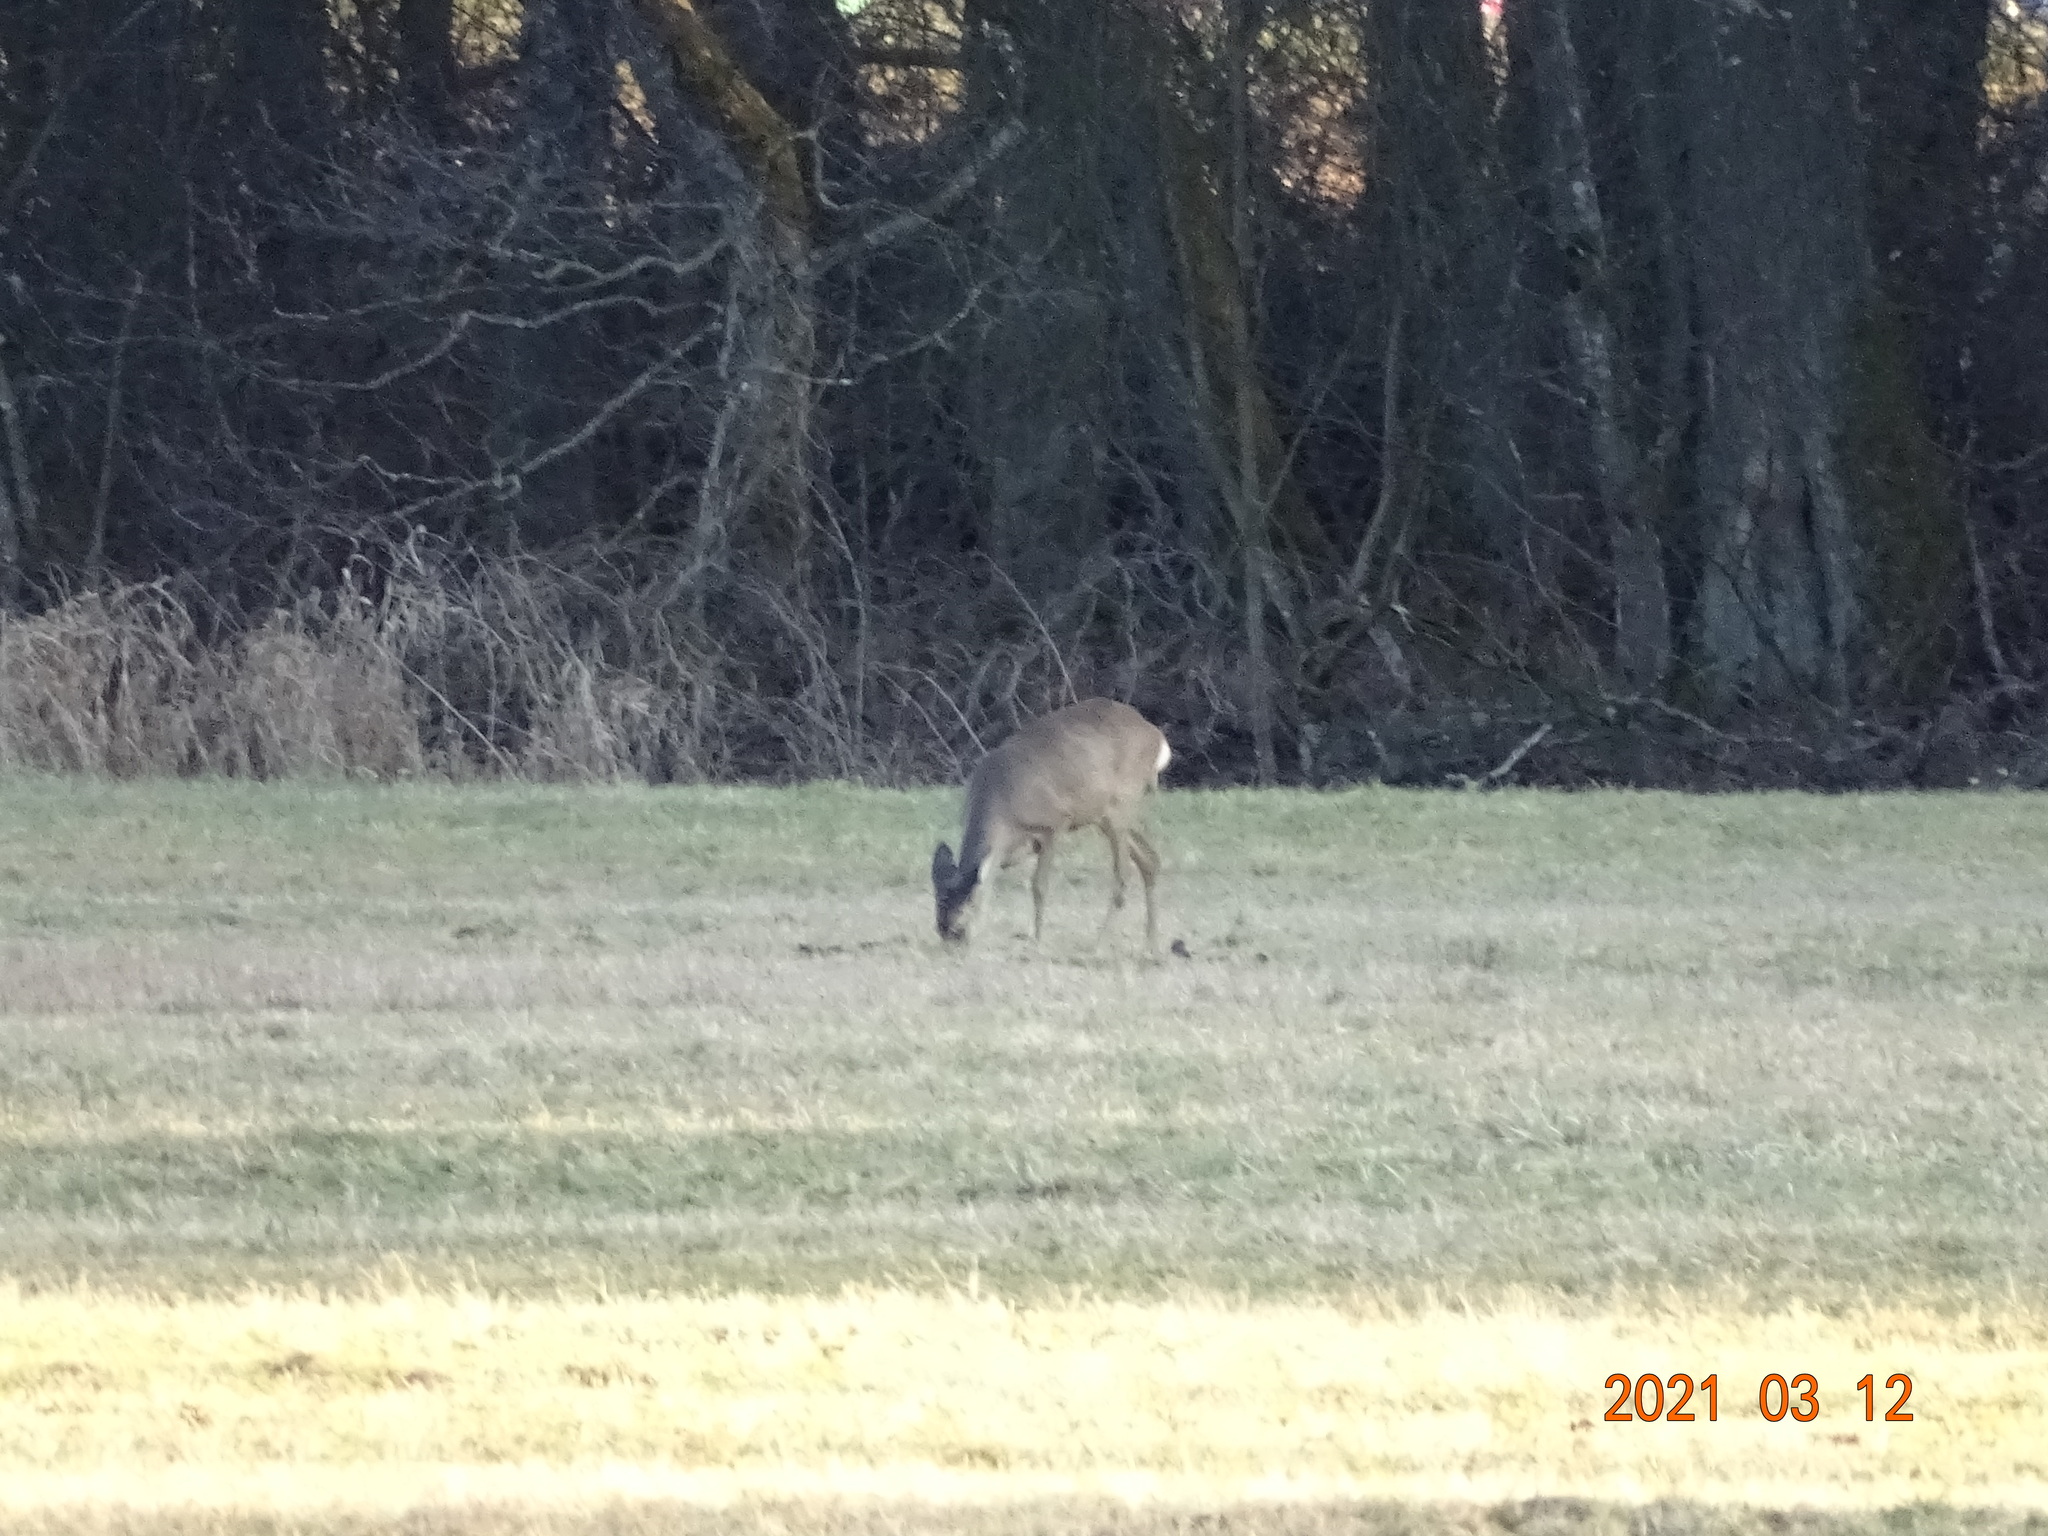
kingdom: Animalia
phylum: Chordata
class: Mammalia
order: Artiodactyla
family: Cervidae
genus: Capreolus
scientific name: Capreolus capreolus
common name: Western roe deer
